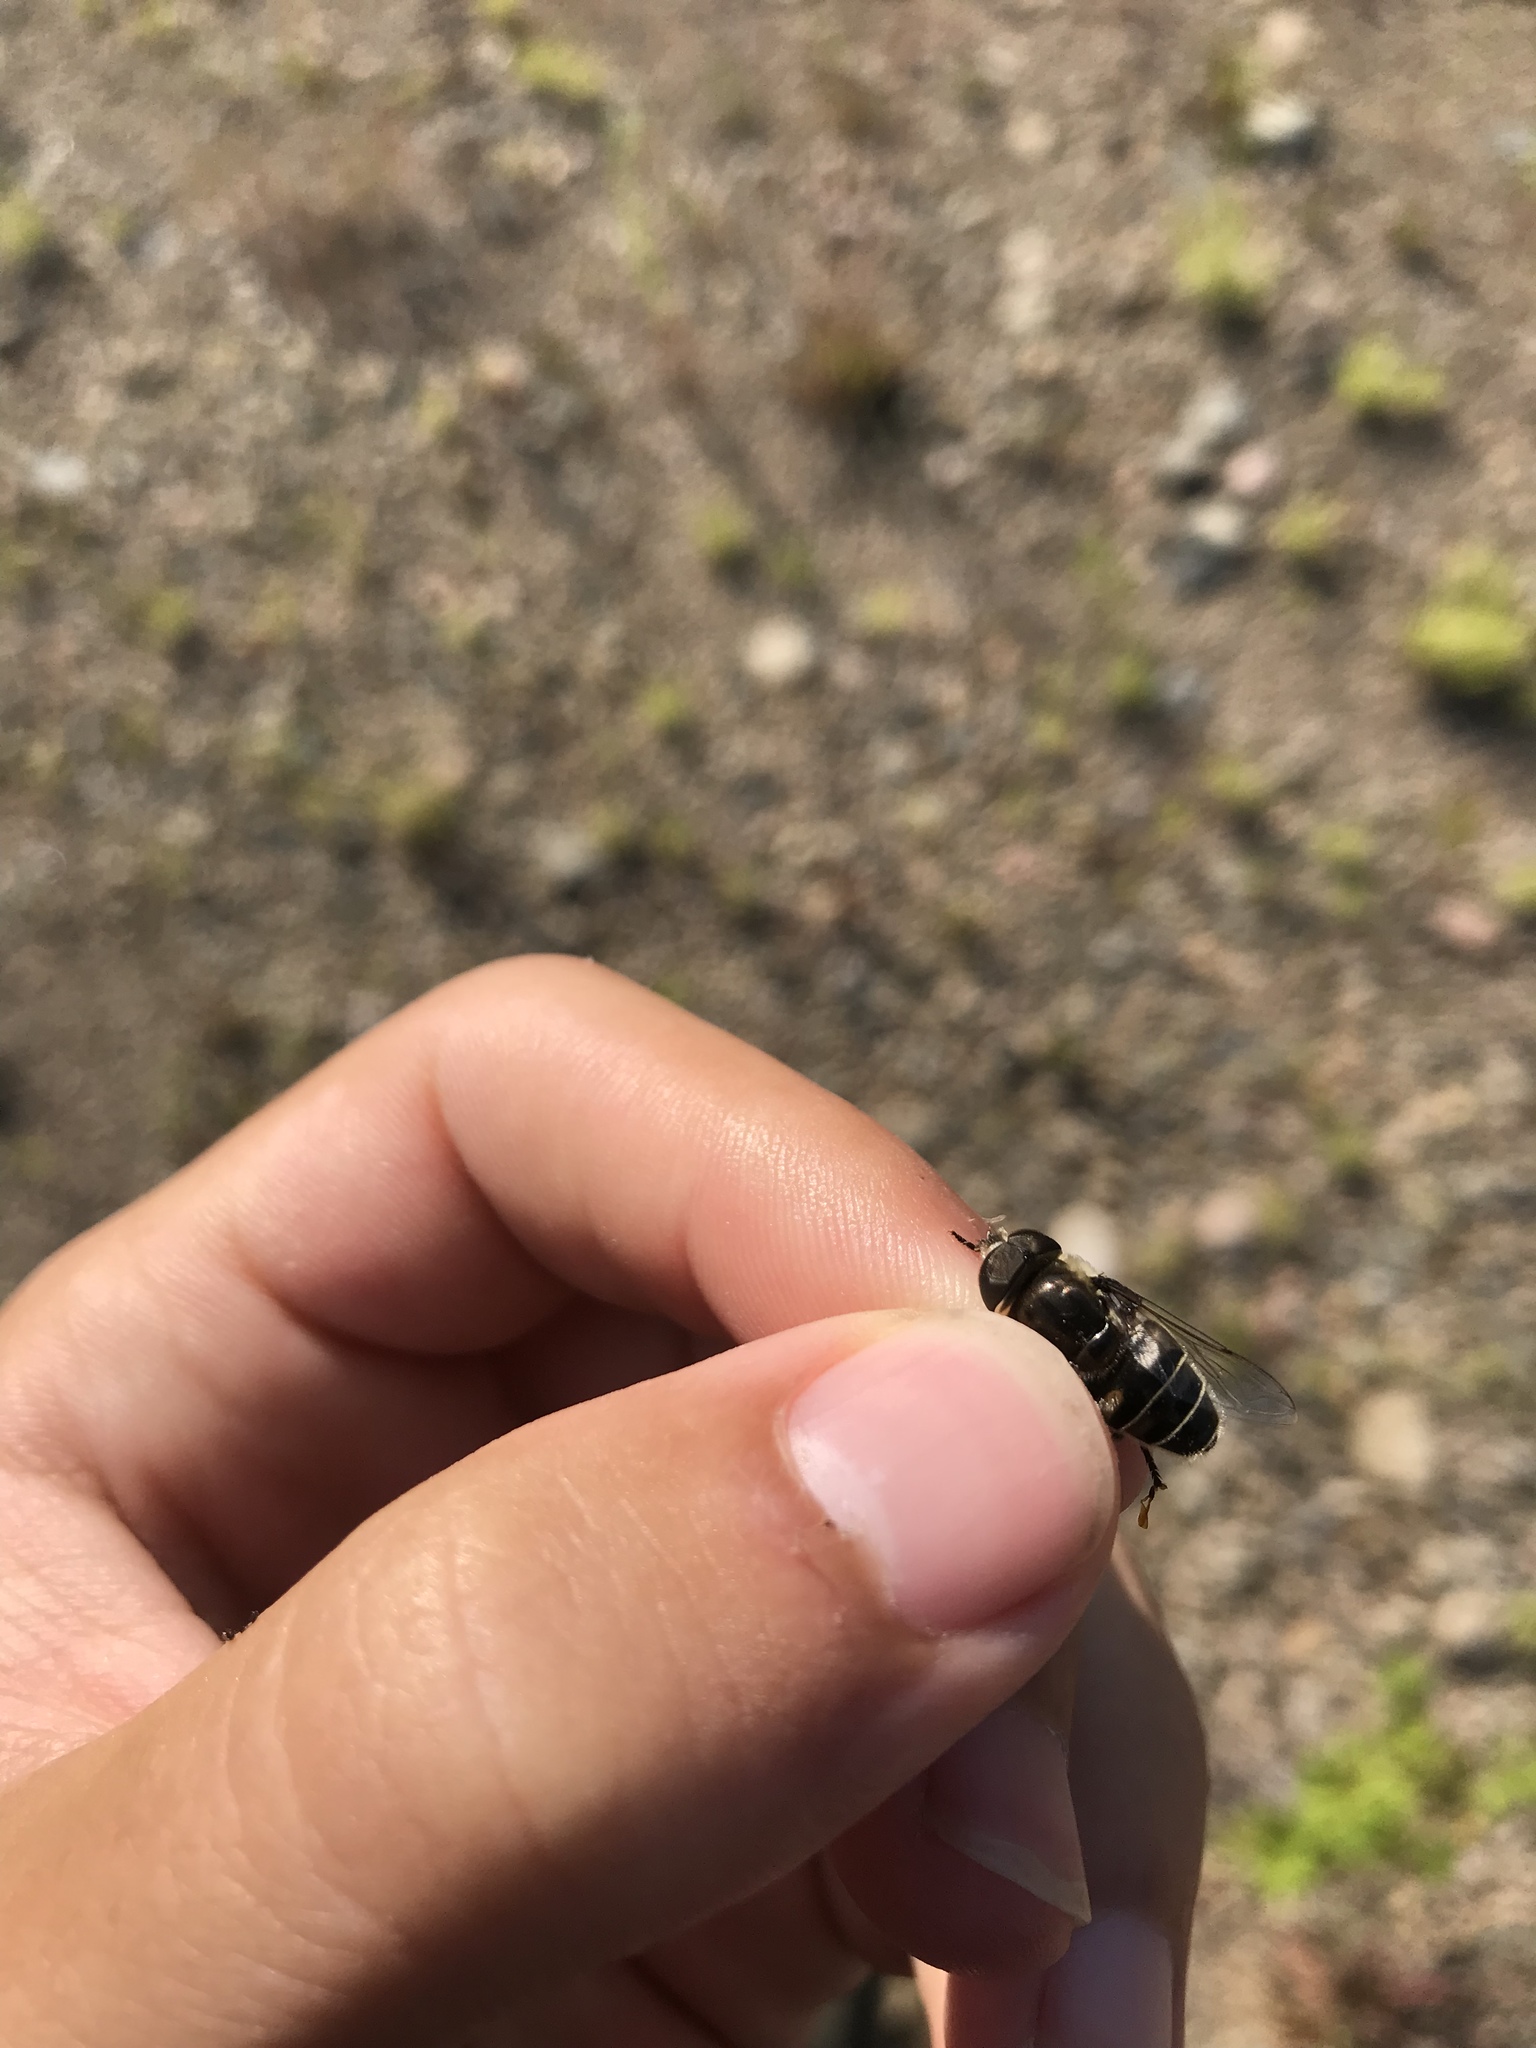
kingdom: Animalia
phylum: Arthropoda
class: Insecta
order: Diptera
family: Syrphidae
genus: Eristalis
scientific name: Eristalis dimidiata
